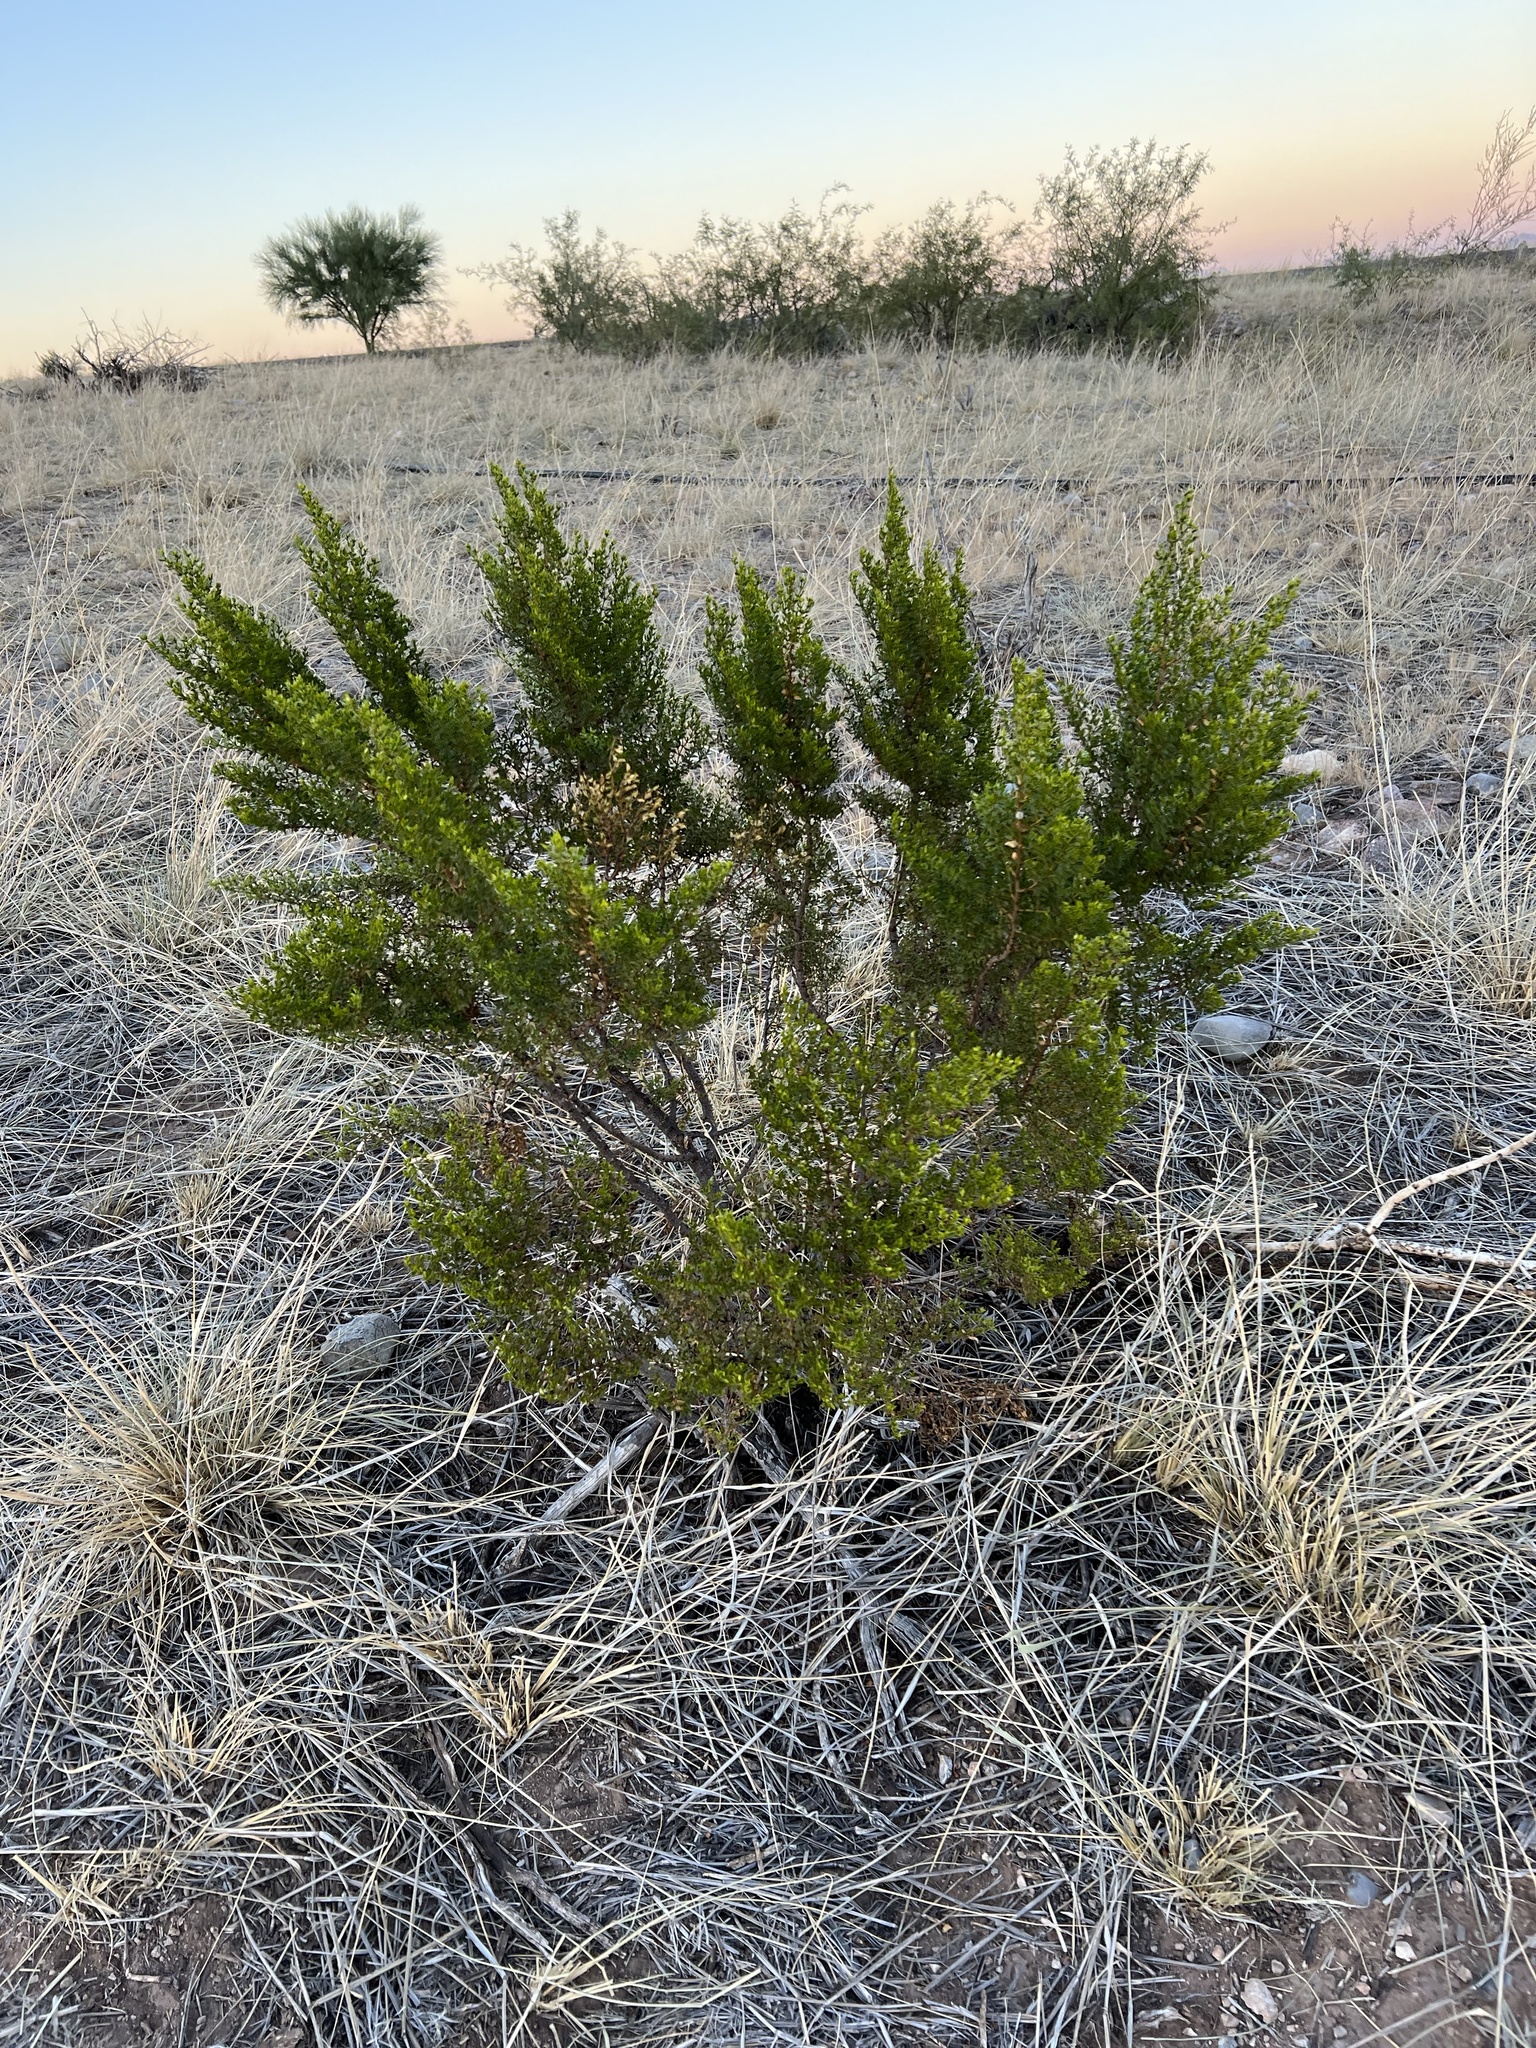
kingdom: Plantae
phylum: Tracheophyta
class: Magnoliopsida
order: Zygophyllales
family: Zygophyllaceae
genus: Larrea
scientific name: Larrea tridentata
